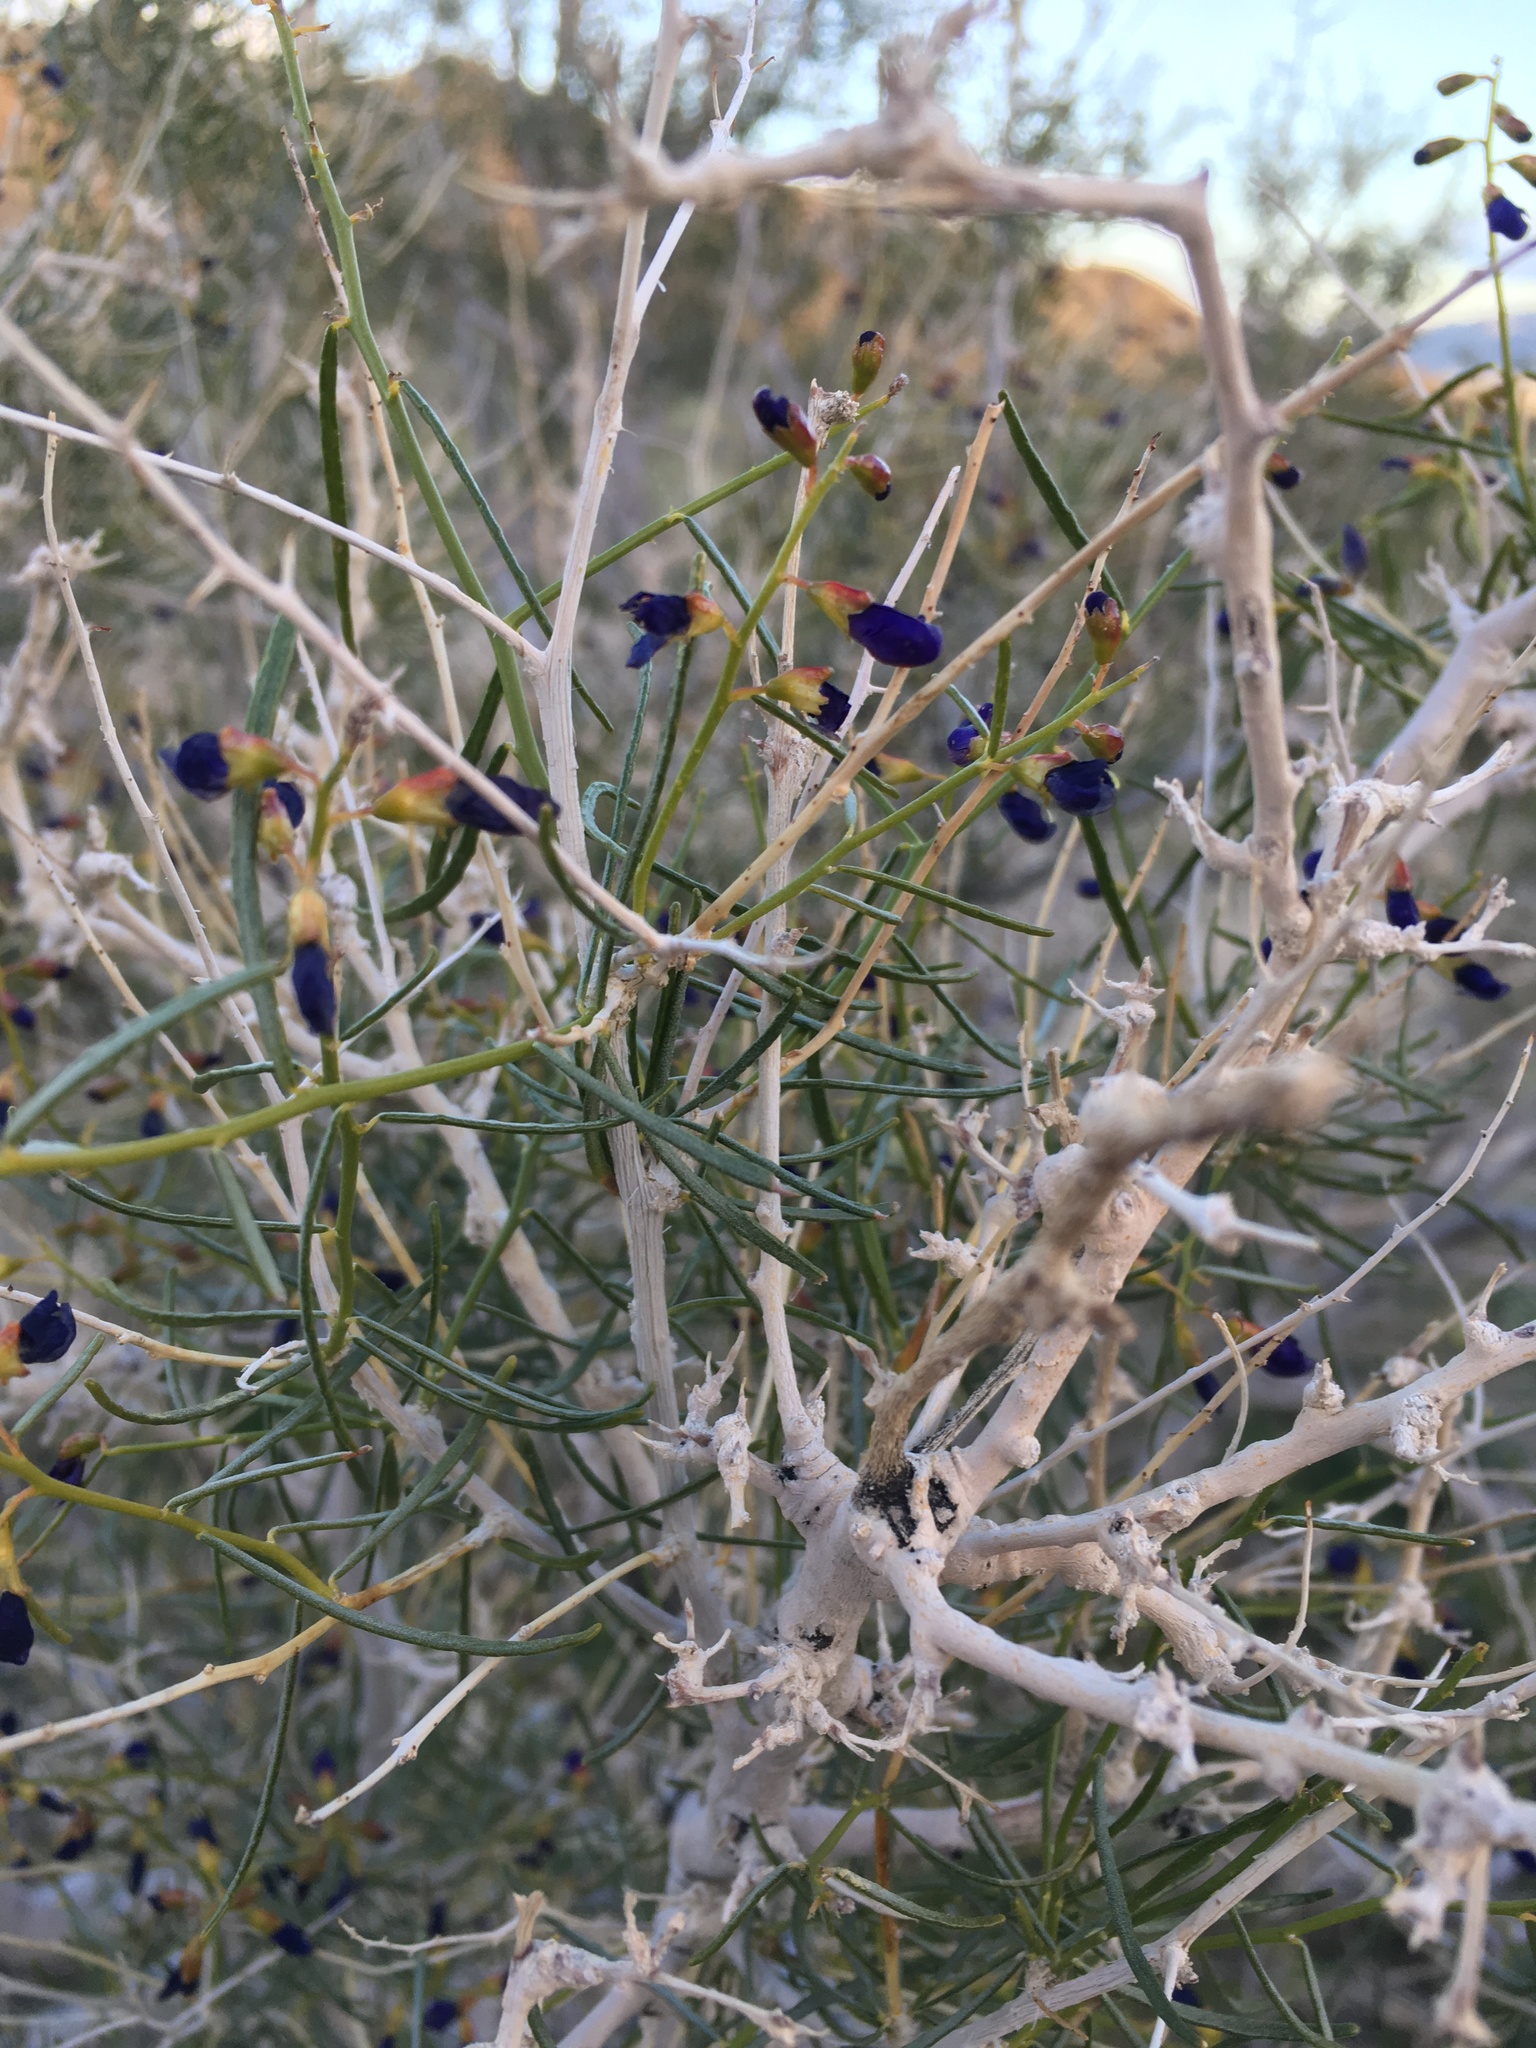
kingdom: Plantae
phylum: Tracheophyta
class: Magnoliopsida
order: Fabales
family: Fabaceae
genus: Psorothamnus
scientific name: Psorothamnus schottii
